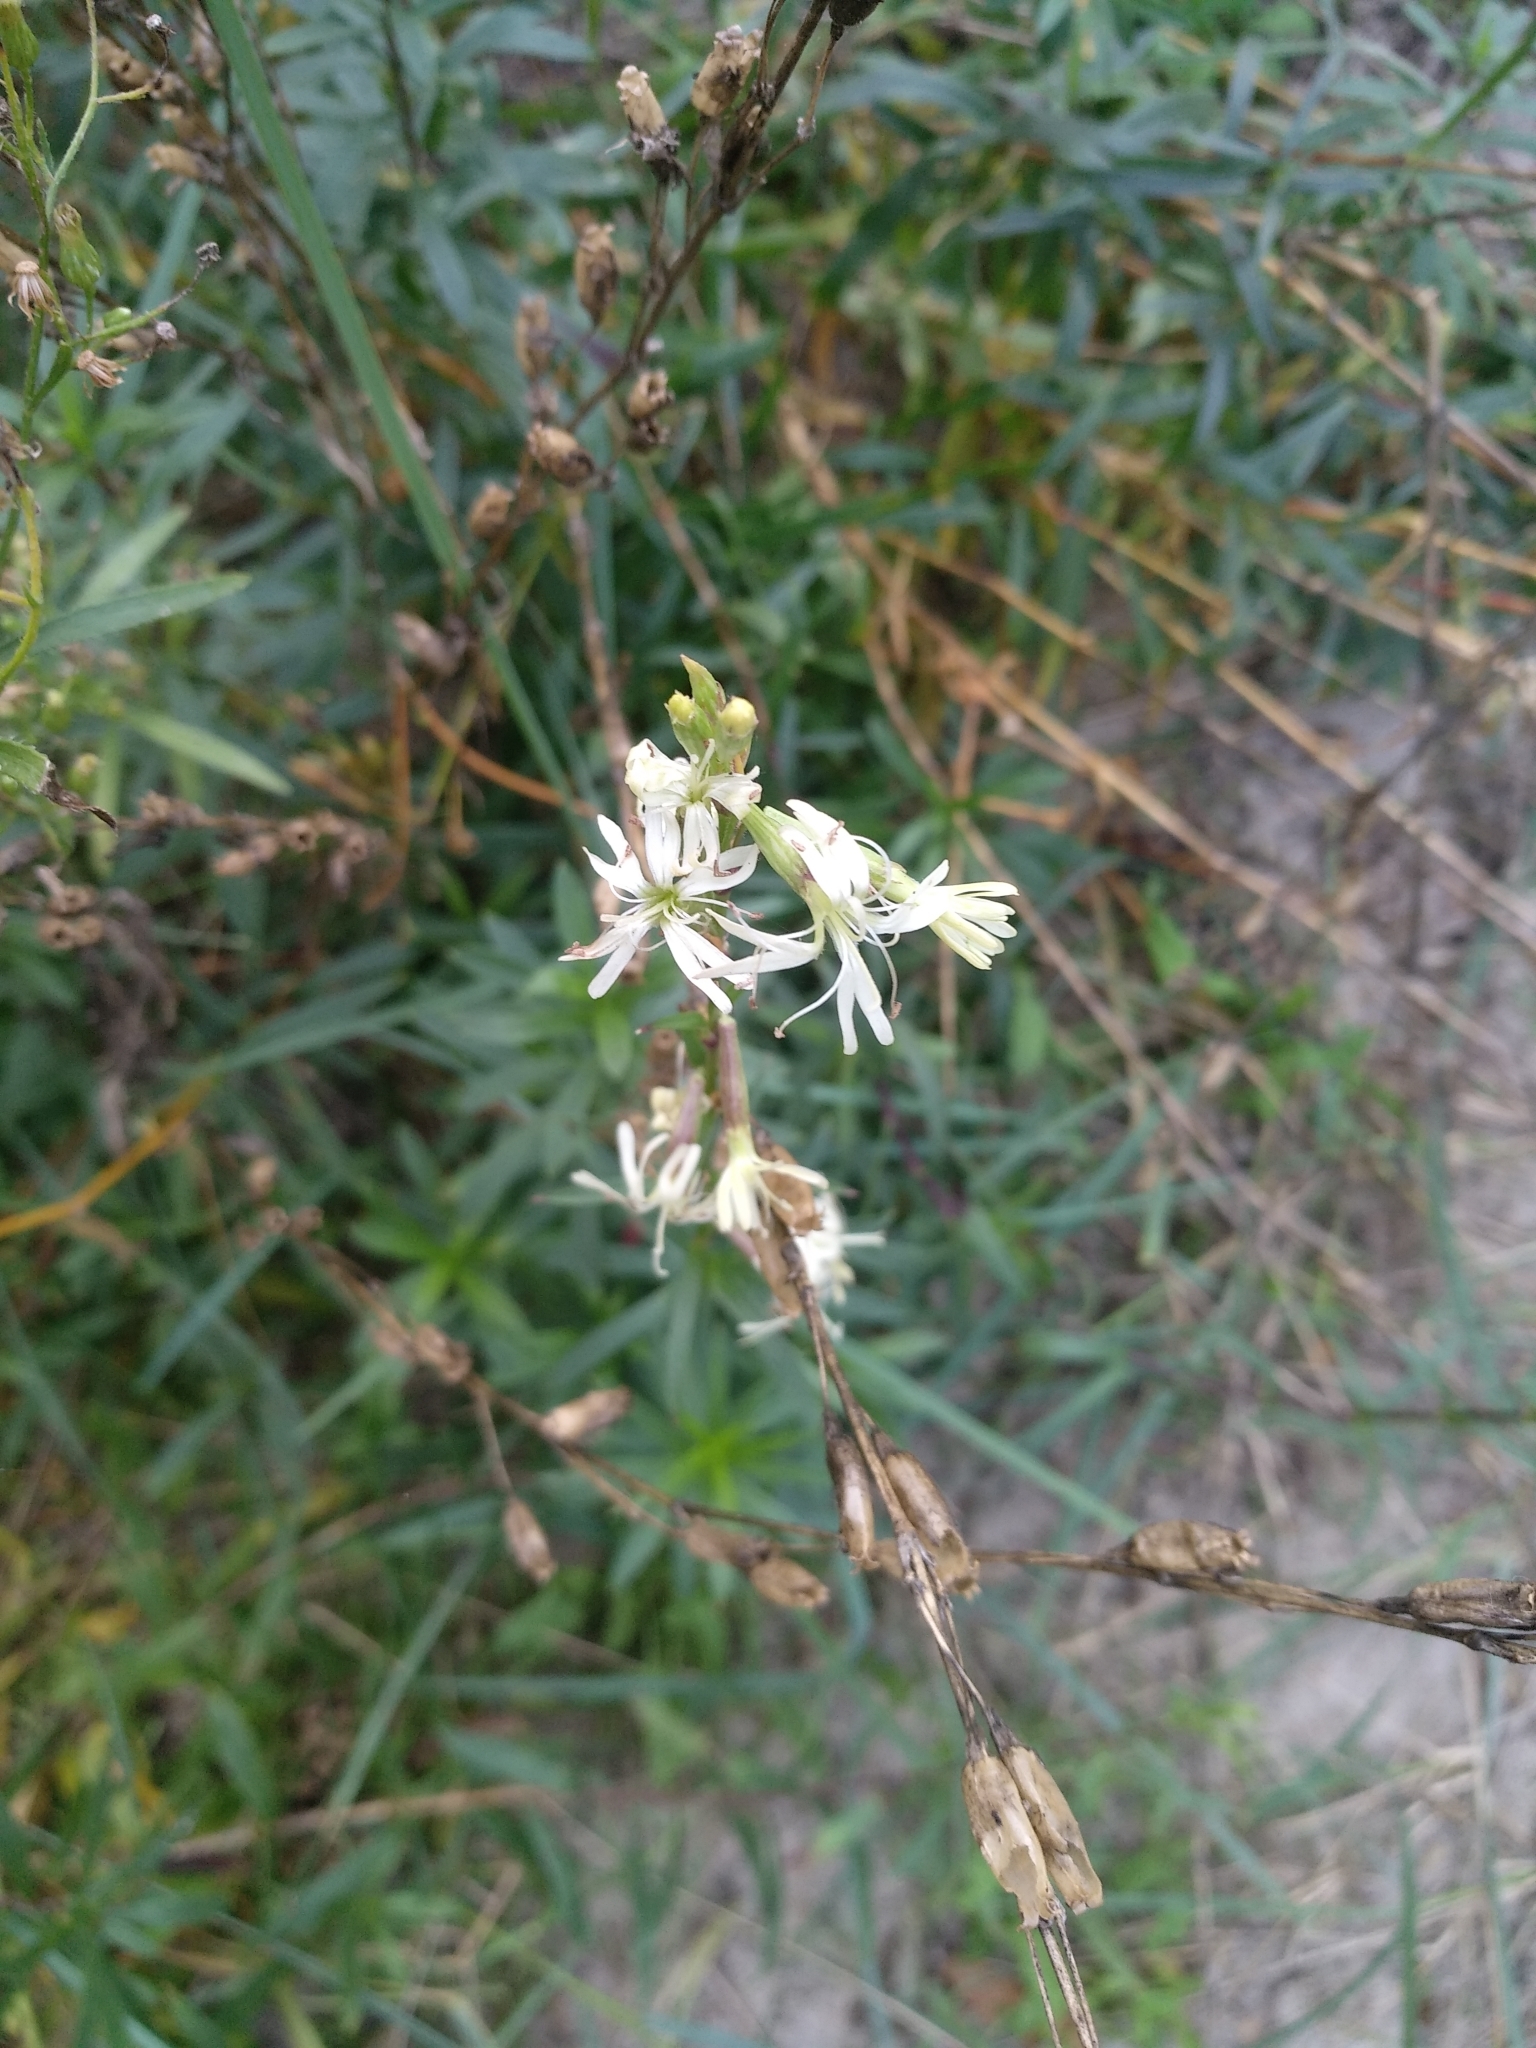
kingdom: Plantae
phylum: Tracheophyta
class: Magnoliopsida
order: Caryophyllales
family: Caryophyllaceae
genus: Silene
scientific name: Silene tatarica
